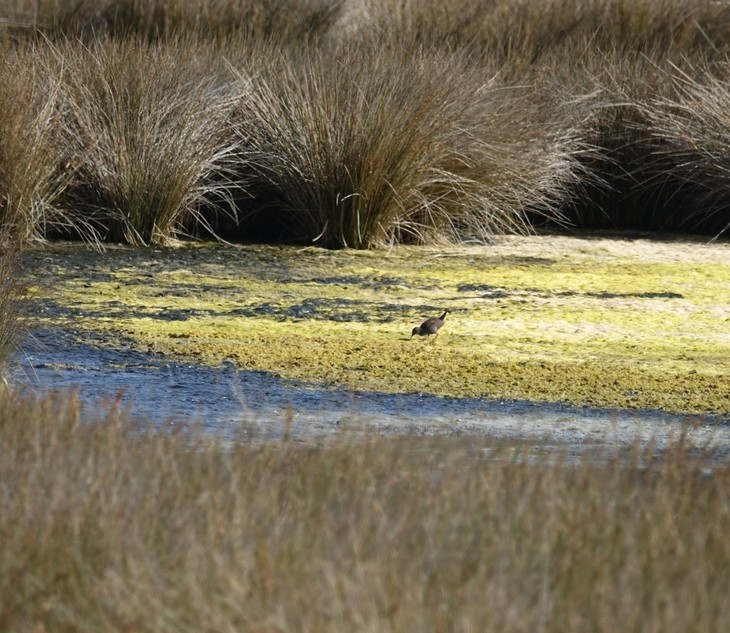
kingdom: Animalia
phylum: Chordata
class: Aves
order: Gruiformes
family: Rallidae
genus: Porzana
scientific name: Porzana tabuensis
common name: Spotless crake
